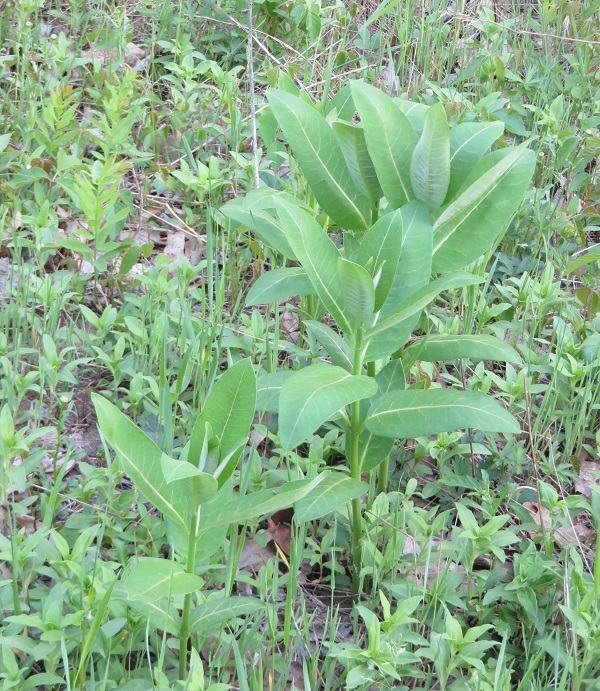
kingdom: Plantae
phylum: Tracheophyta
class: Magnoliopsida
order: Gentianales
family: Apocynaceae
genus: Asclepias
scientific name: Asclepias syriaca
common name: Common milkweed
